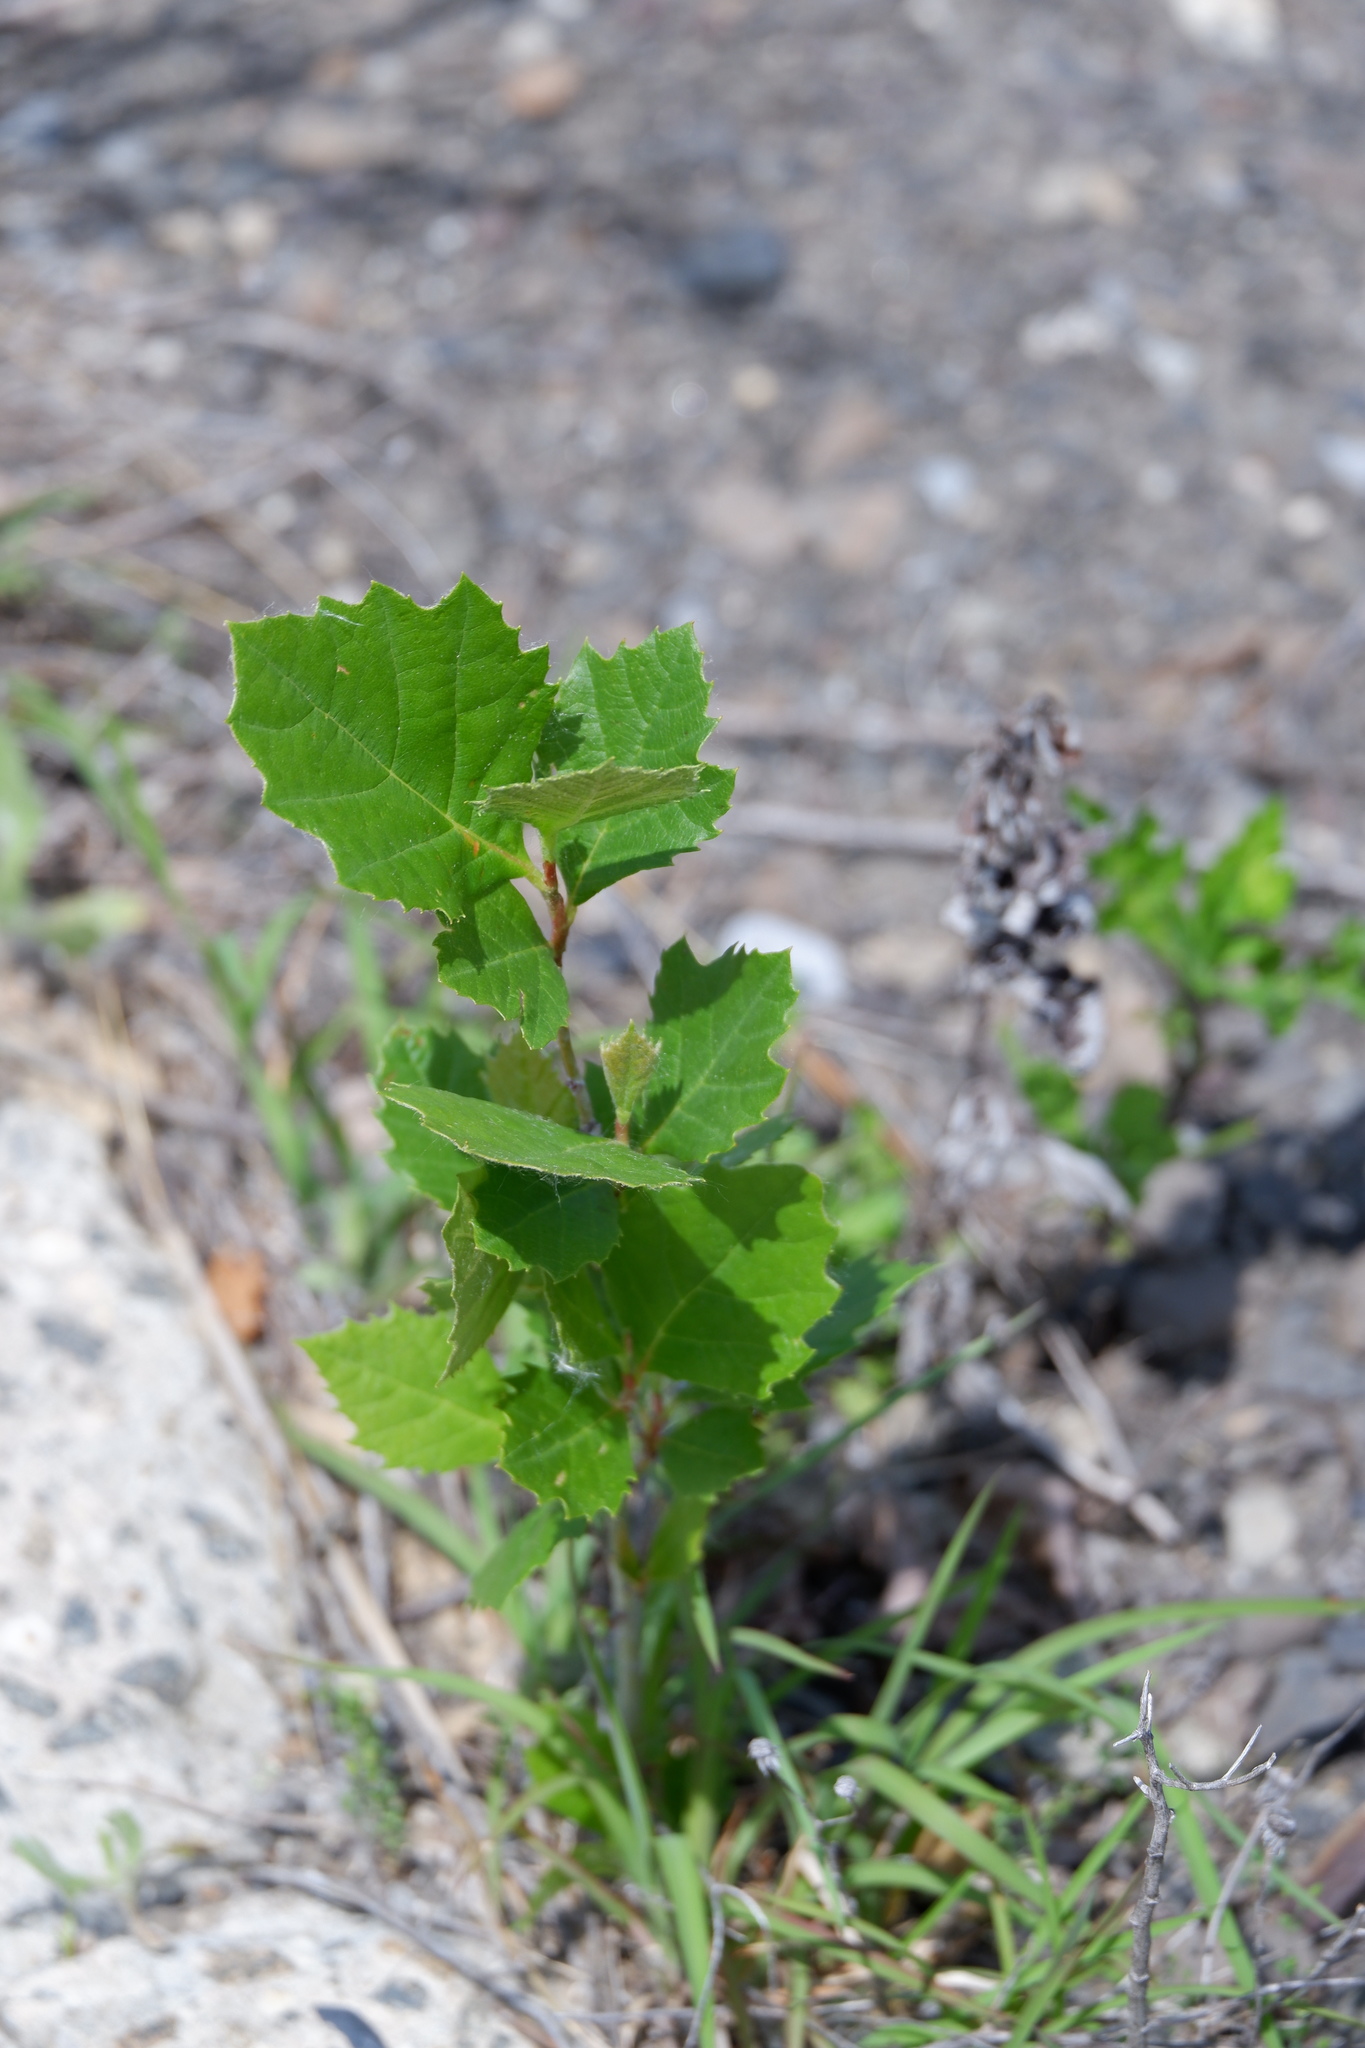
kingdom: Plantae
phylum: Tracheophyta
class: Magnoliopsida
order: Proteales
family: Platanaceae
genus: Platanus
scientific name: Platanus occidentalis
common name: American sycamore
